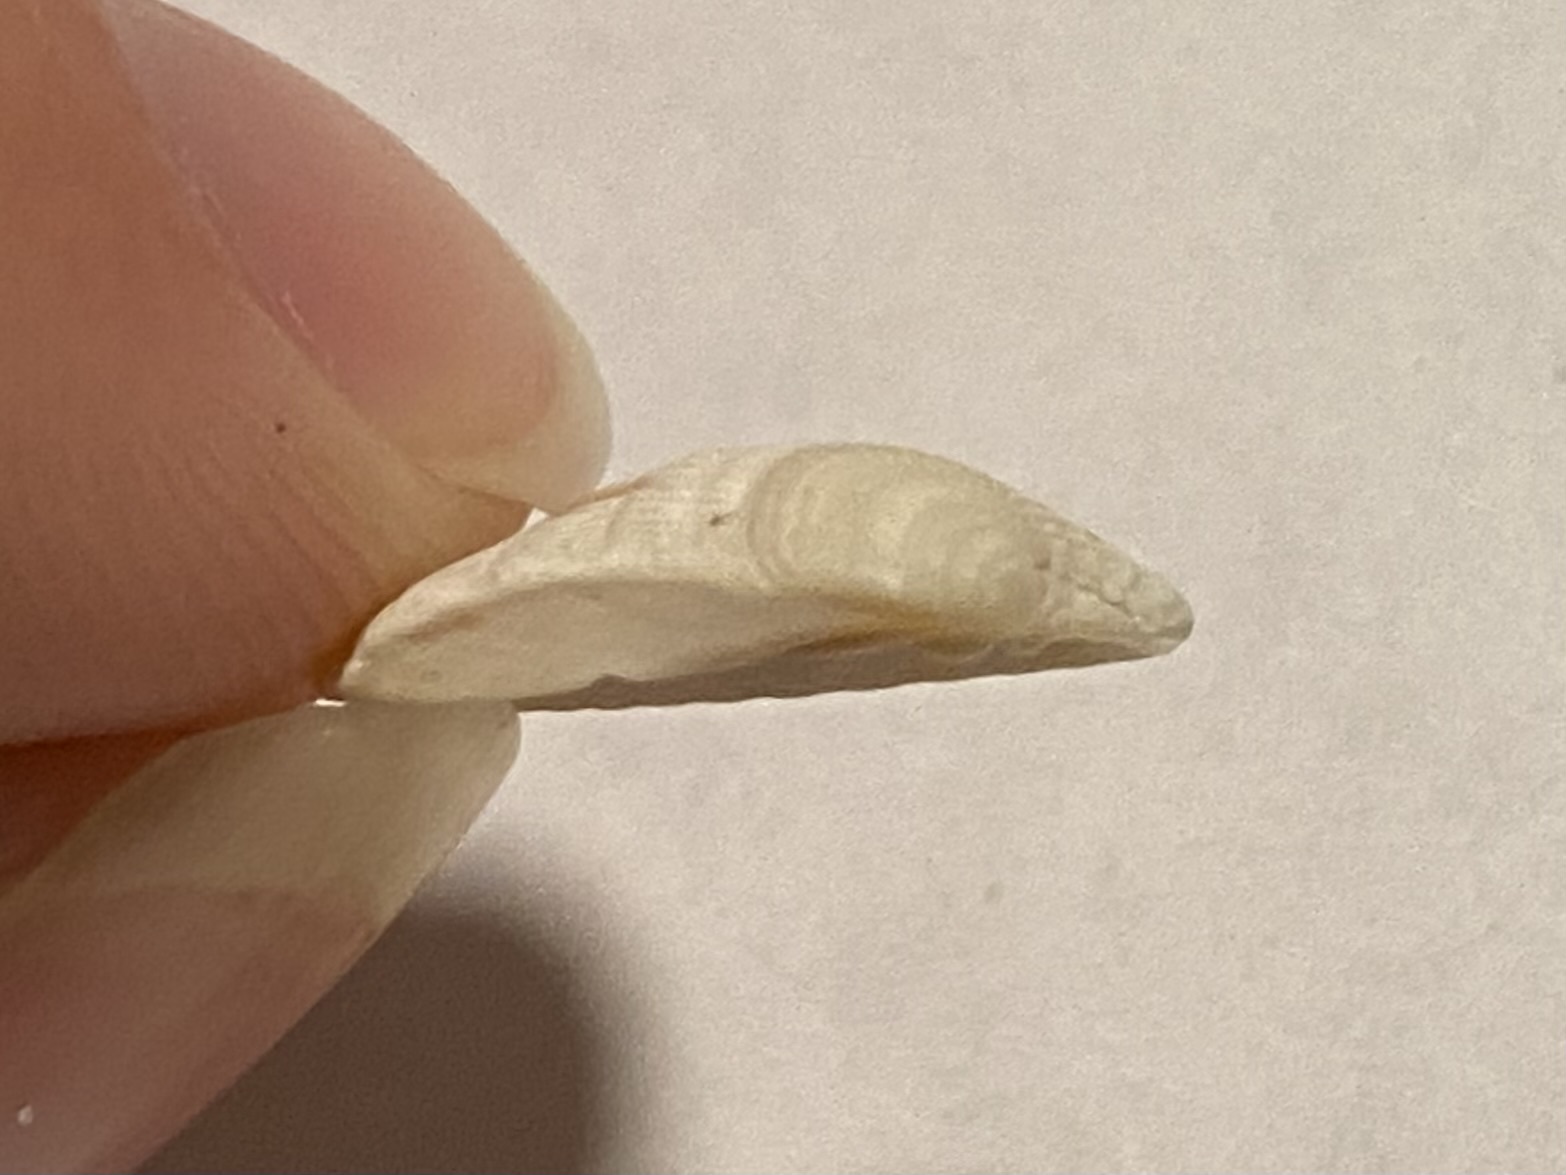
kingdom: Animalia
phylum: Mollusca
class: Bivalvia
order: Venerida
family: Veneridae
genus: Chione
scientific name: Chione elevata
